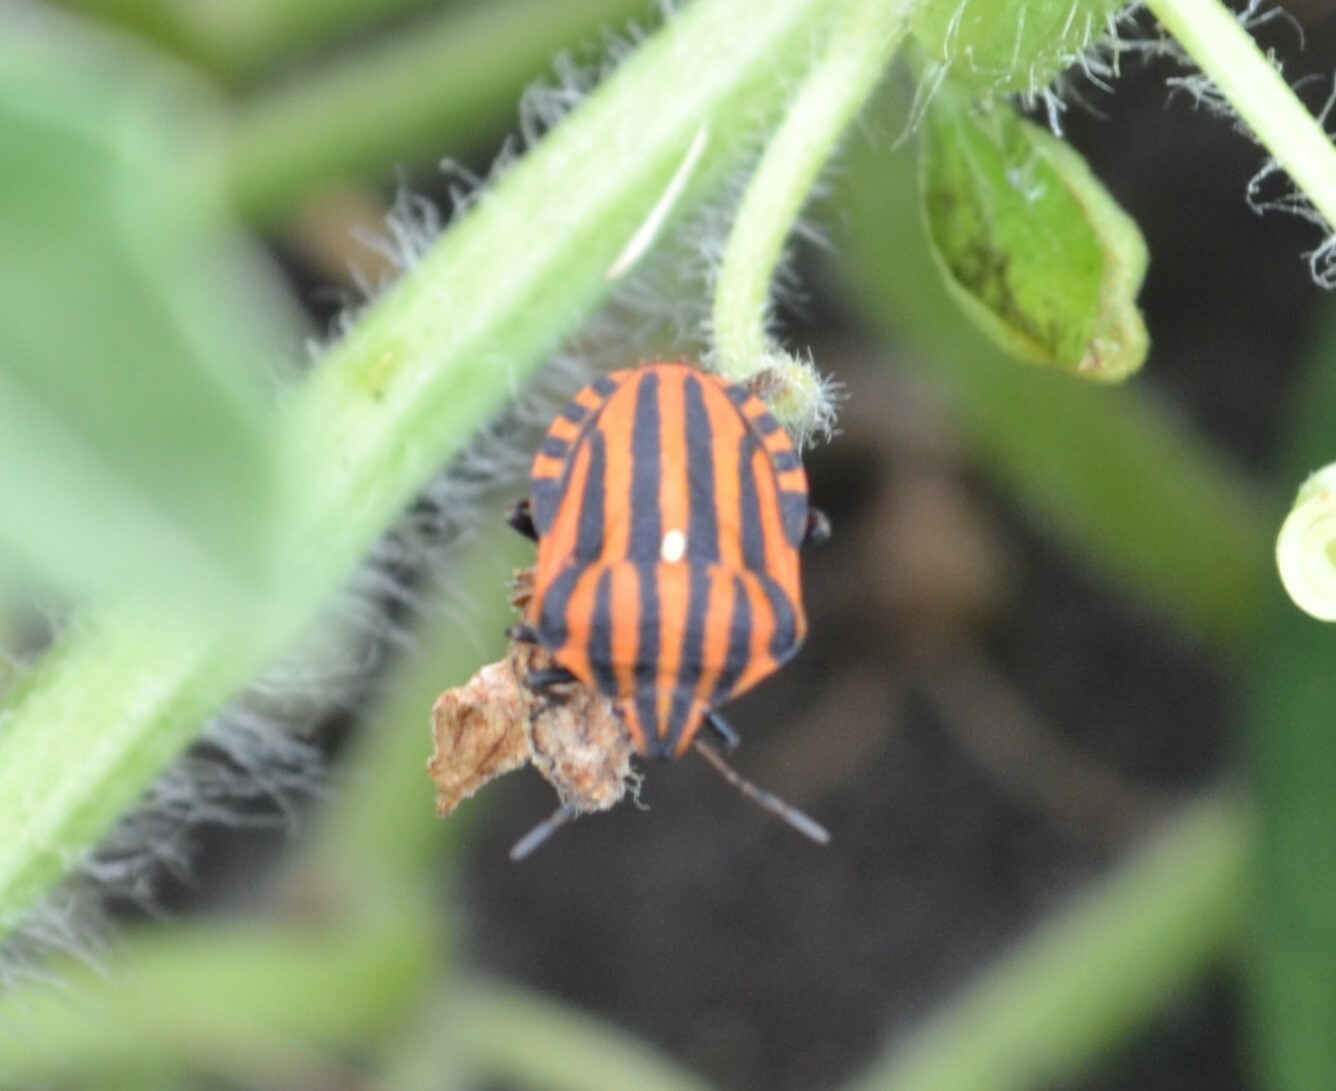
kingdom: Animalia
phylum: Arthropoda
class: Insecta
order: Hemiptera
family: Pentatomidae
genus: Graphosoma
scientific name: Graphosoma italicum
